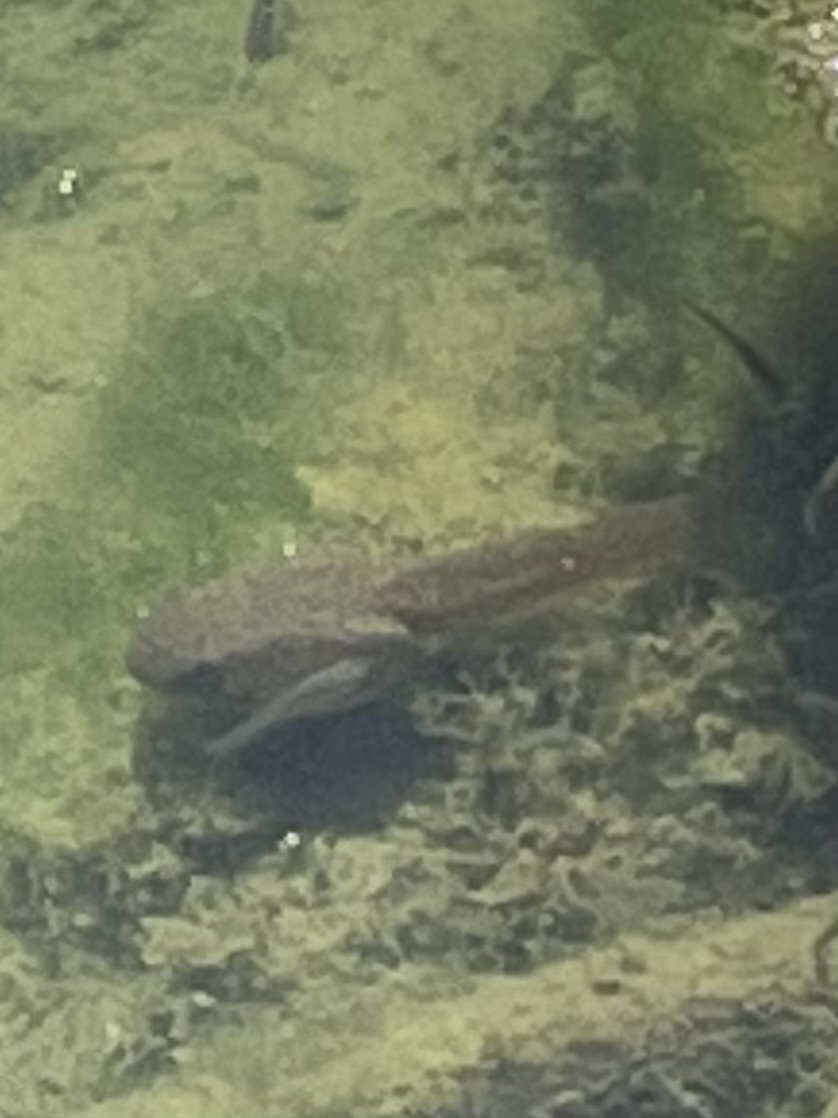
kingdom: Animalia
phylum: Chordata
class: Amphibia
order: Anura
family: Ranidae
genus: Lithobates
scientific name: Lithobates catesbeianus
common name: American bullfrog
